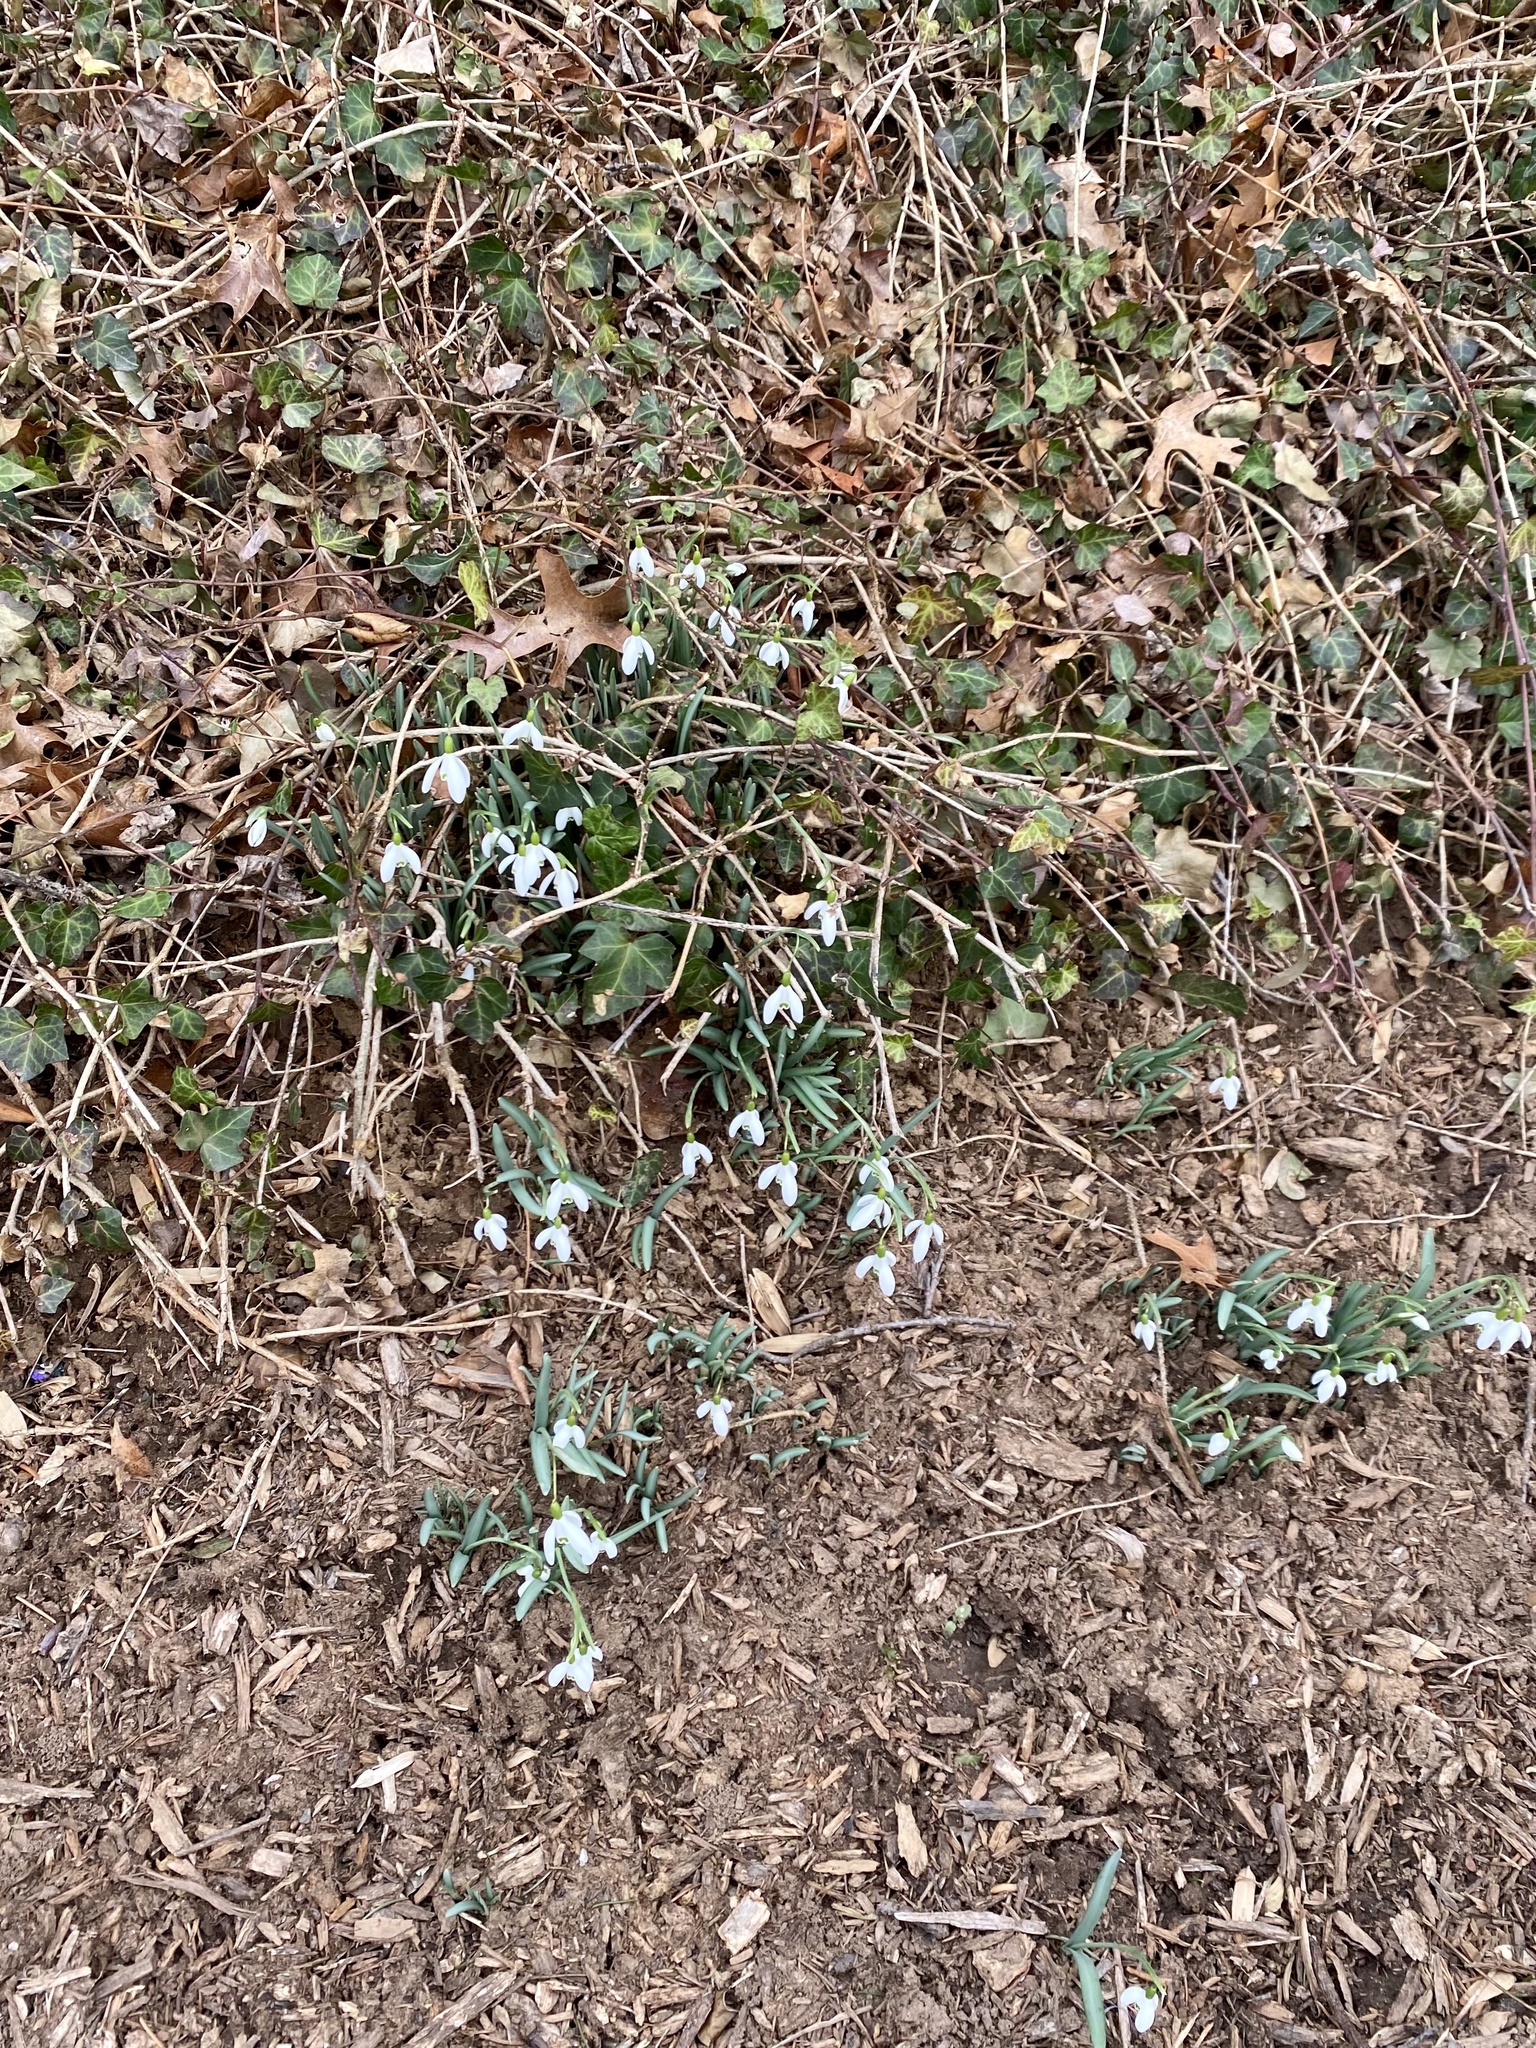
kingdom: Plantae
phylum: Tracheophyta
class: Liliopsida
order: Asparagales
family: Amaryllidaceae
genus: Galanthus
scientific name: Galanthus nivalis
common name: Snowdrop
